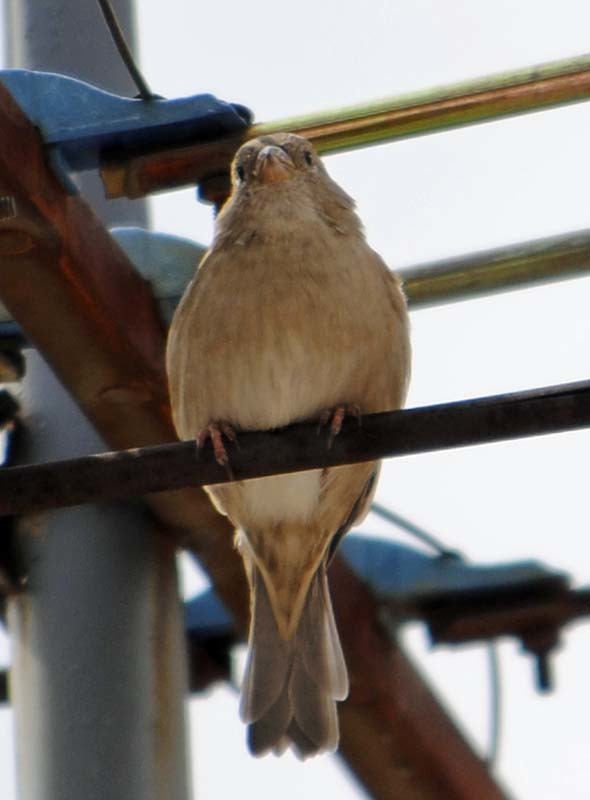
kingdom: Animalia
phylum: Chordata
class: Aves
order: Passeriformes
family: Passeridae
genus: Passer
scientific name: Passer domesticus
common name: House sparrow
